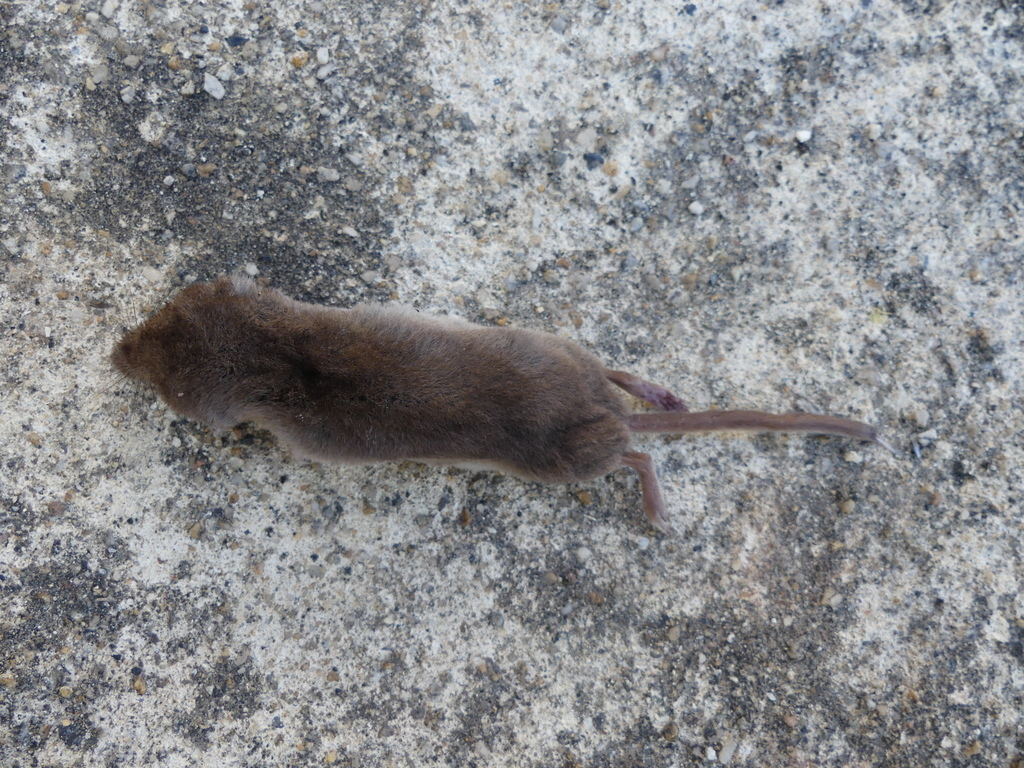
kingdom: Animalia
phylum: Chordata
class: Mammalia
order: Soricomorpha
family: Soricidae
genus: Sorex
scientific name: Sorex araneus
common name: Common shrew
